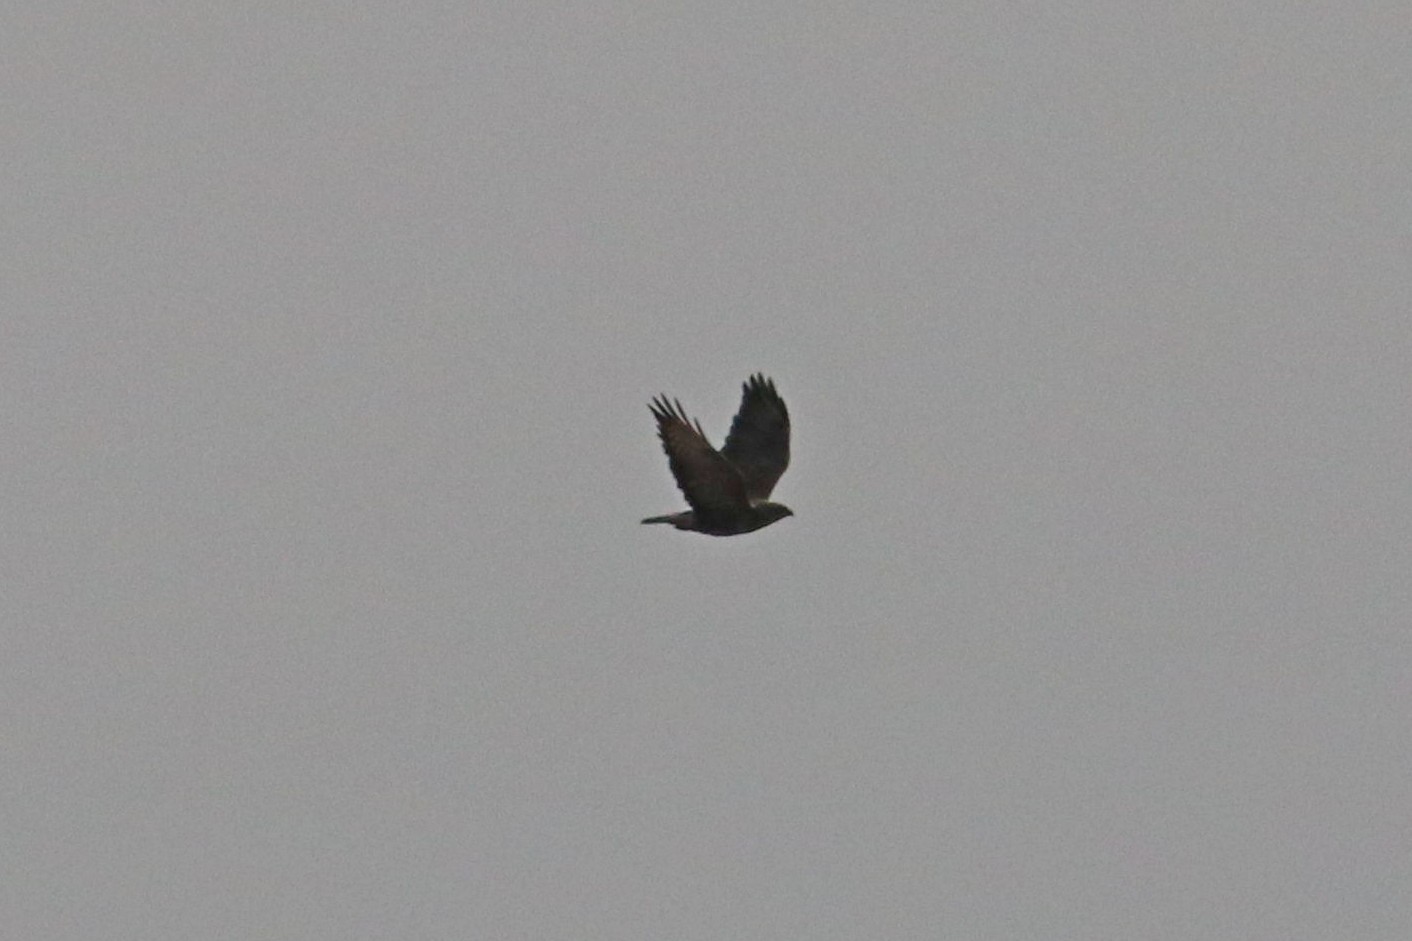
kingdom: Animalia
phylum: Chordata
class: Aves
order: Accipitriformes
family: Accipitridae
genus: Buteo
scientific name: Buteo buteo
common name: Common buzzard
